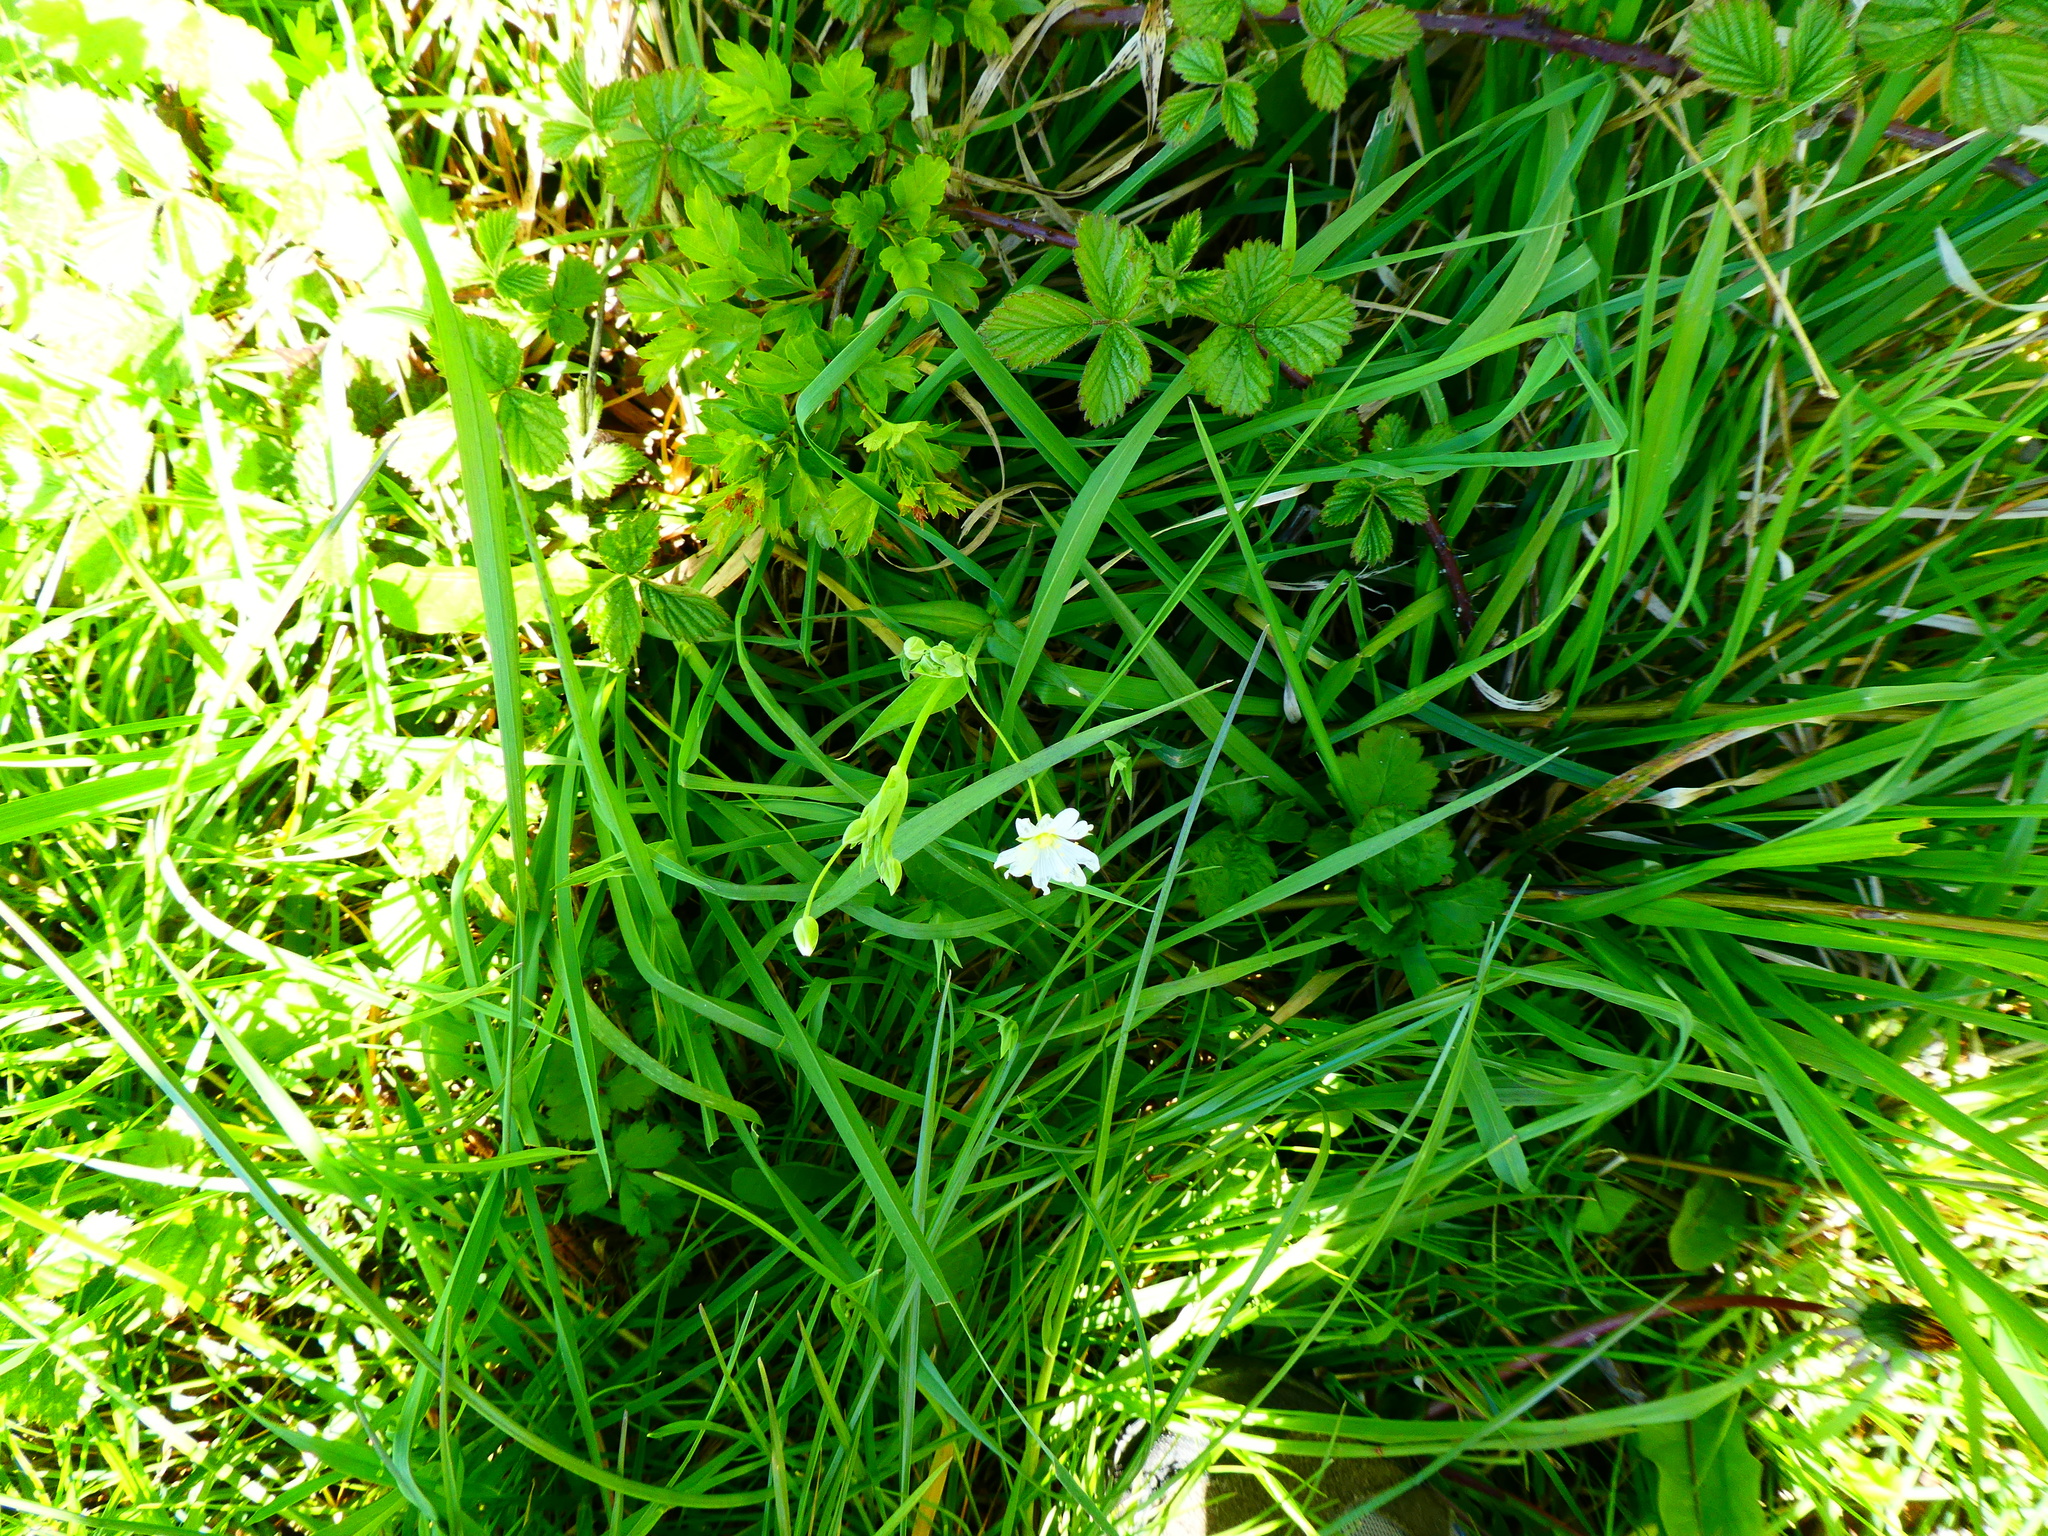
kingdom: Plantae
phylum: Tracheophyta
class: Magnoliopsida
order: Caryophyllales
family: Caryophyllaceae
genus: Rabelera
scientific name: Rabelera holostea
